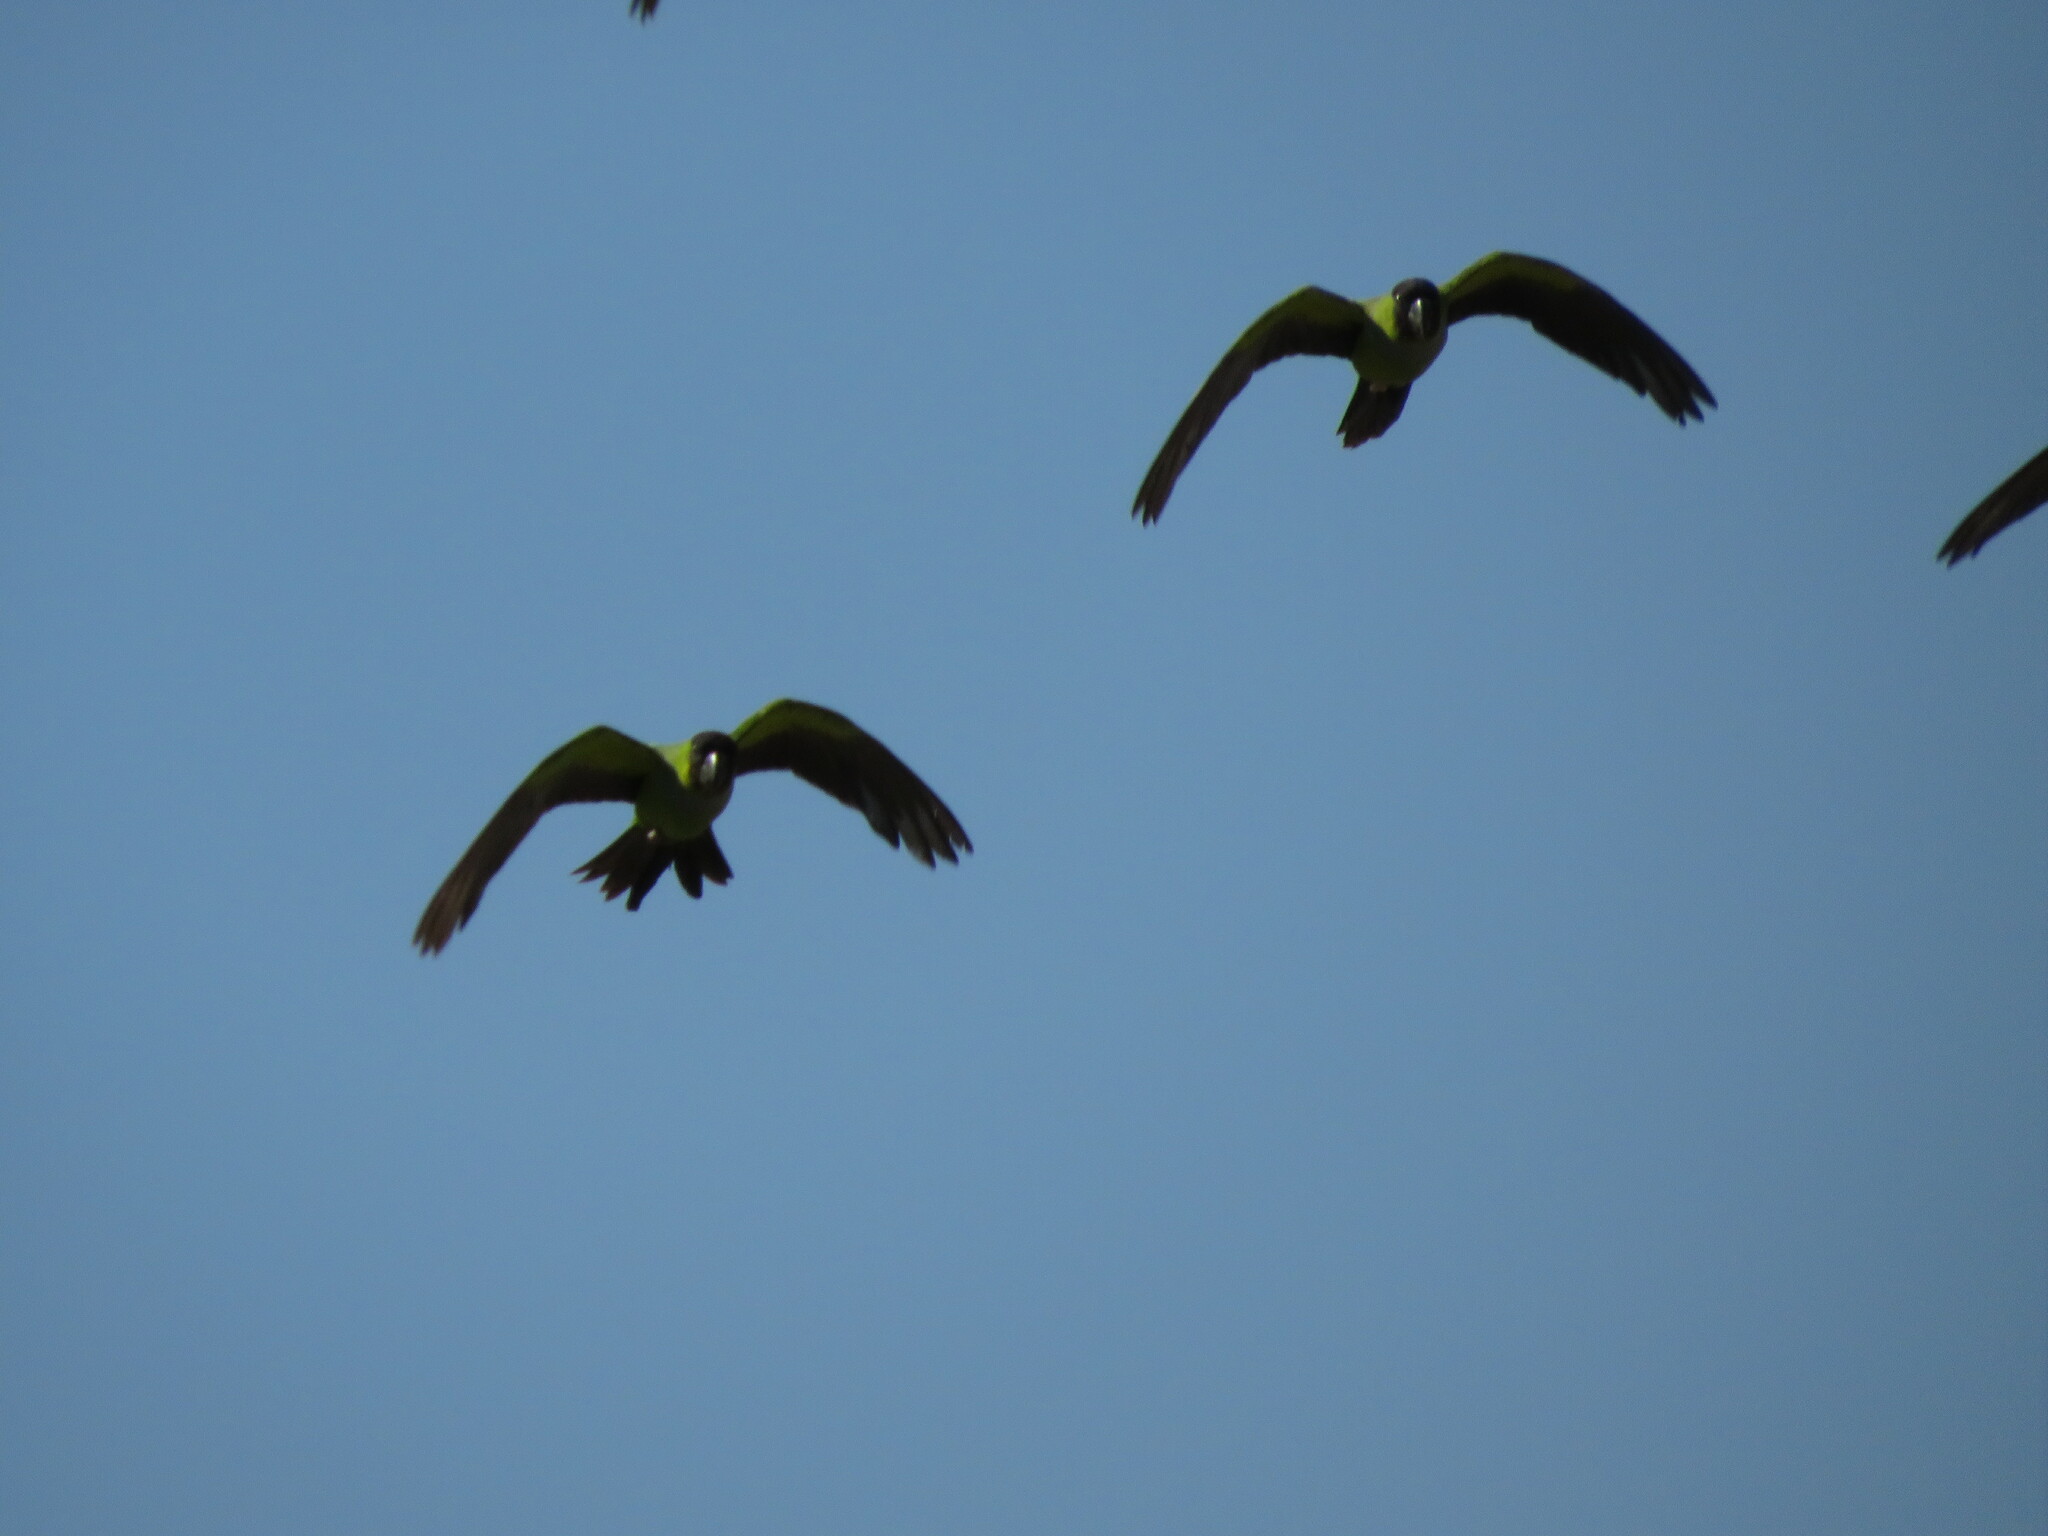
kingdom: Animalia
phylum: Chordata
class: Aves
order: Psittaciformes
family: Psittacidae
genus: Nandayus
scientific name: Nandayus nenday
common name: Nanday parakeet
